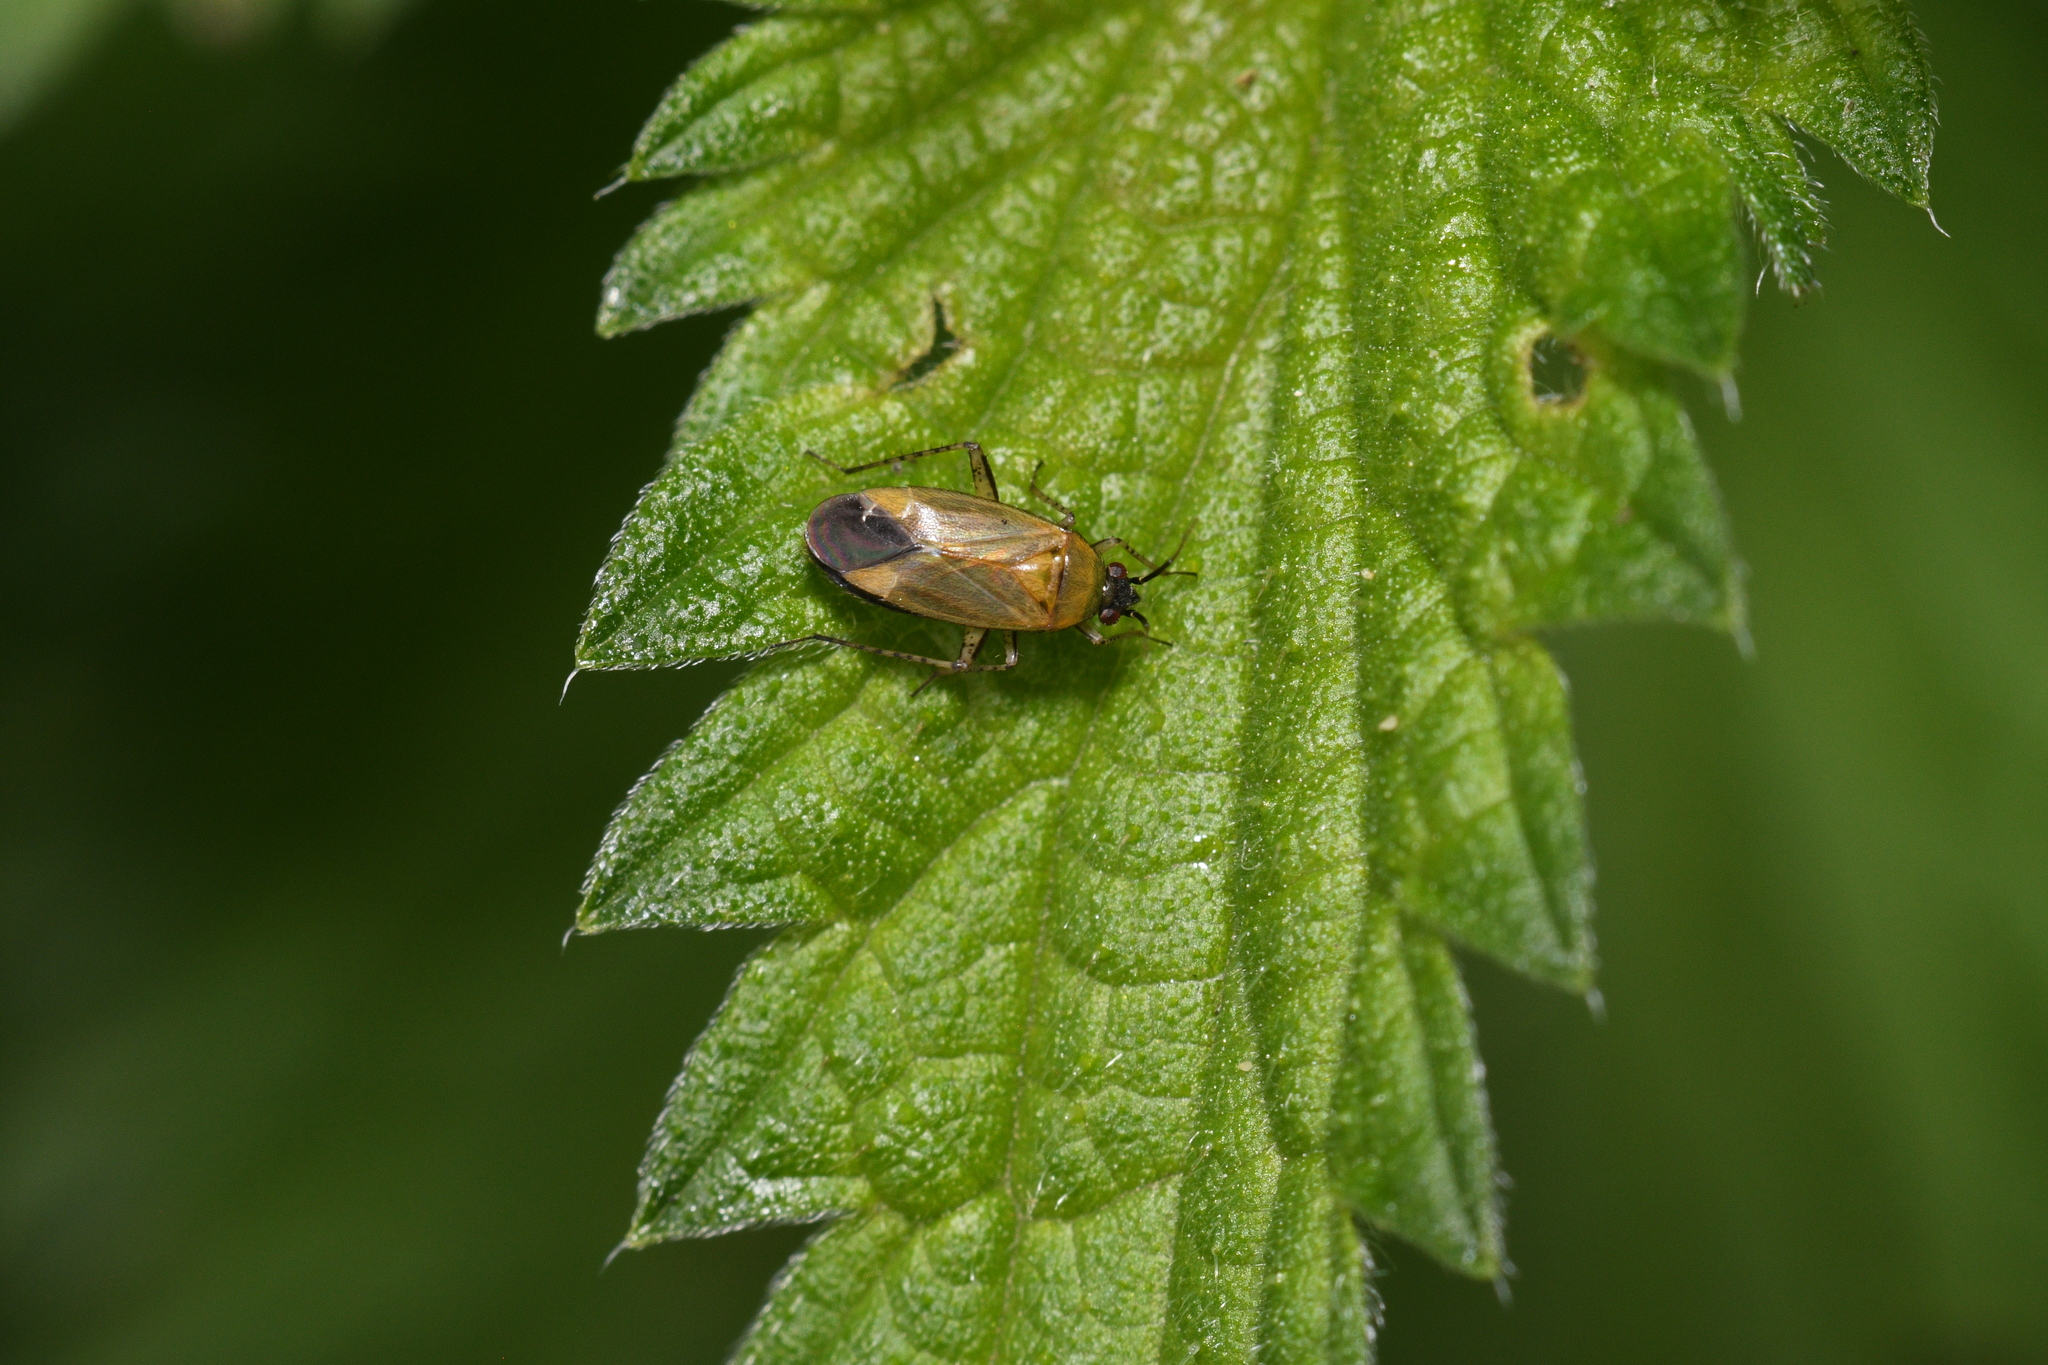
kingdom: Animalia
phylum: Arthropoda
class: Insecta
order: Hemiptera
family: Miridae
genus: Plagiognathus
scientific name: Plagiognathus arbustorum
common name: Plant bug
